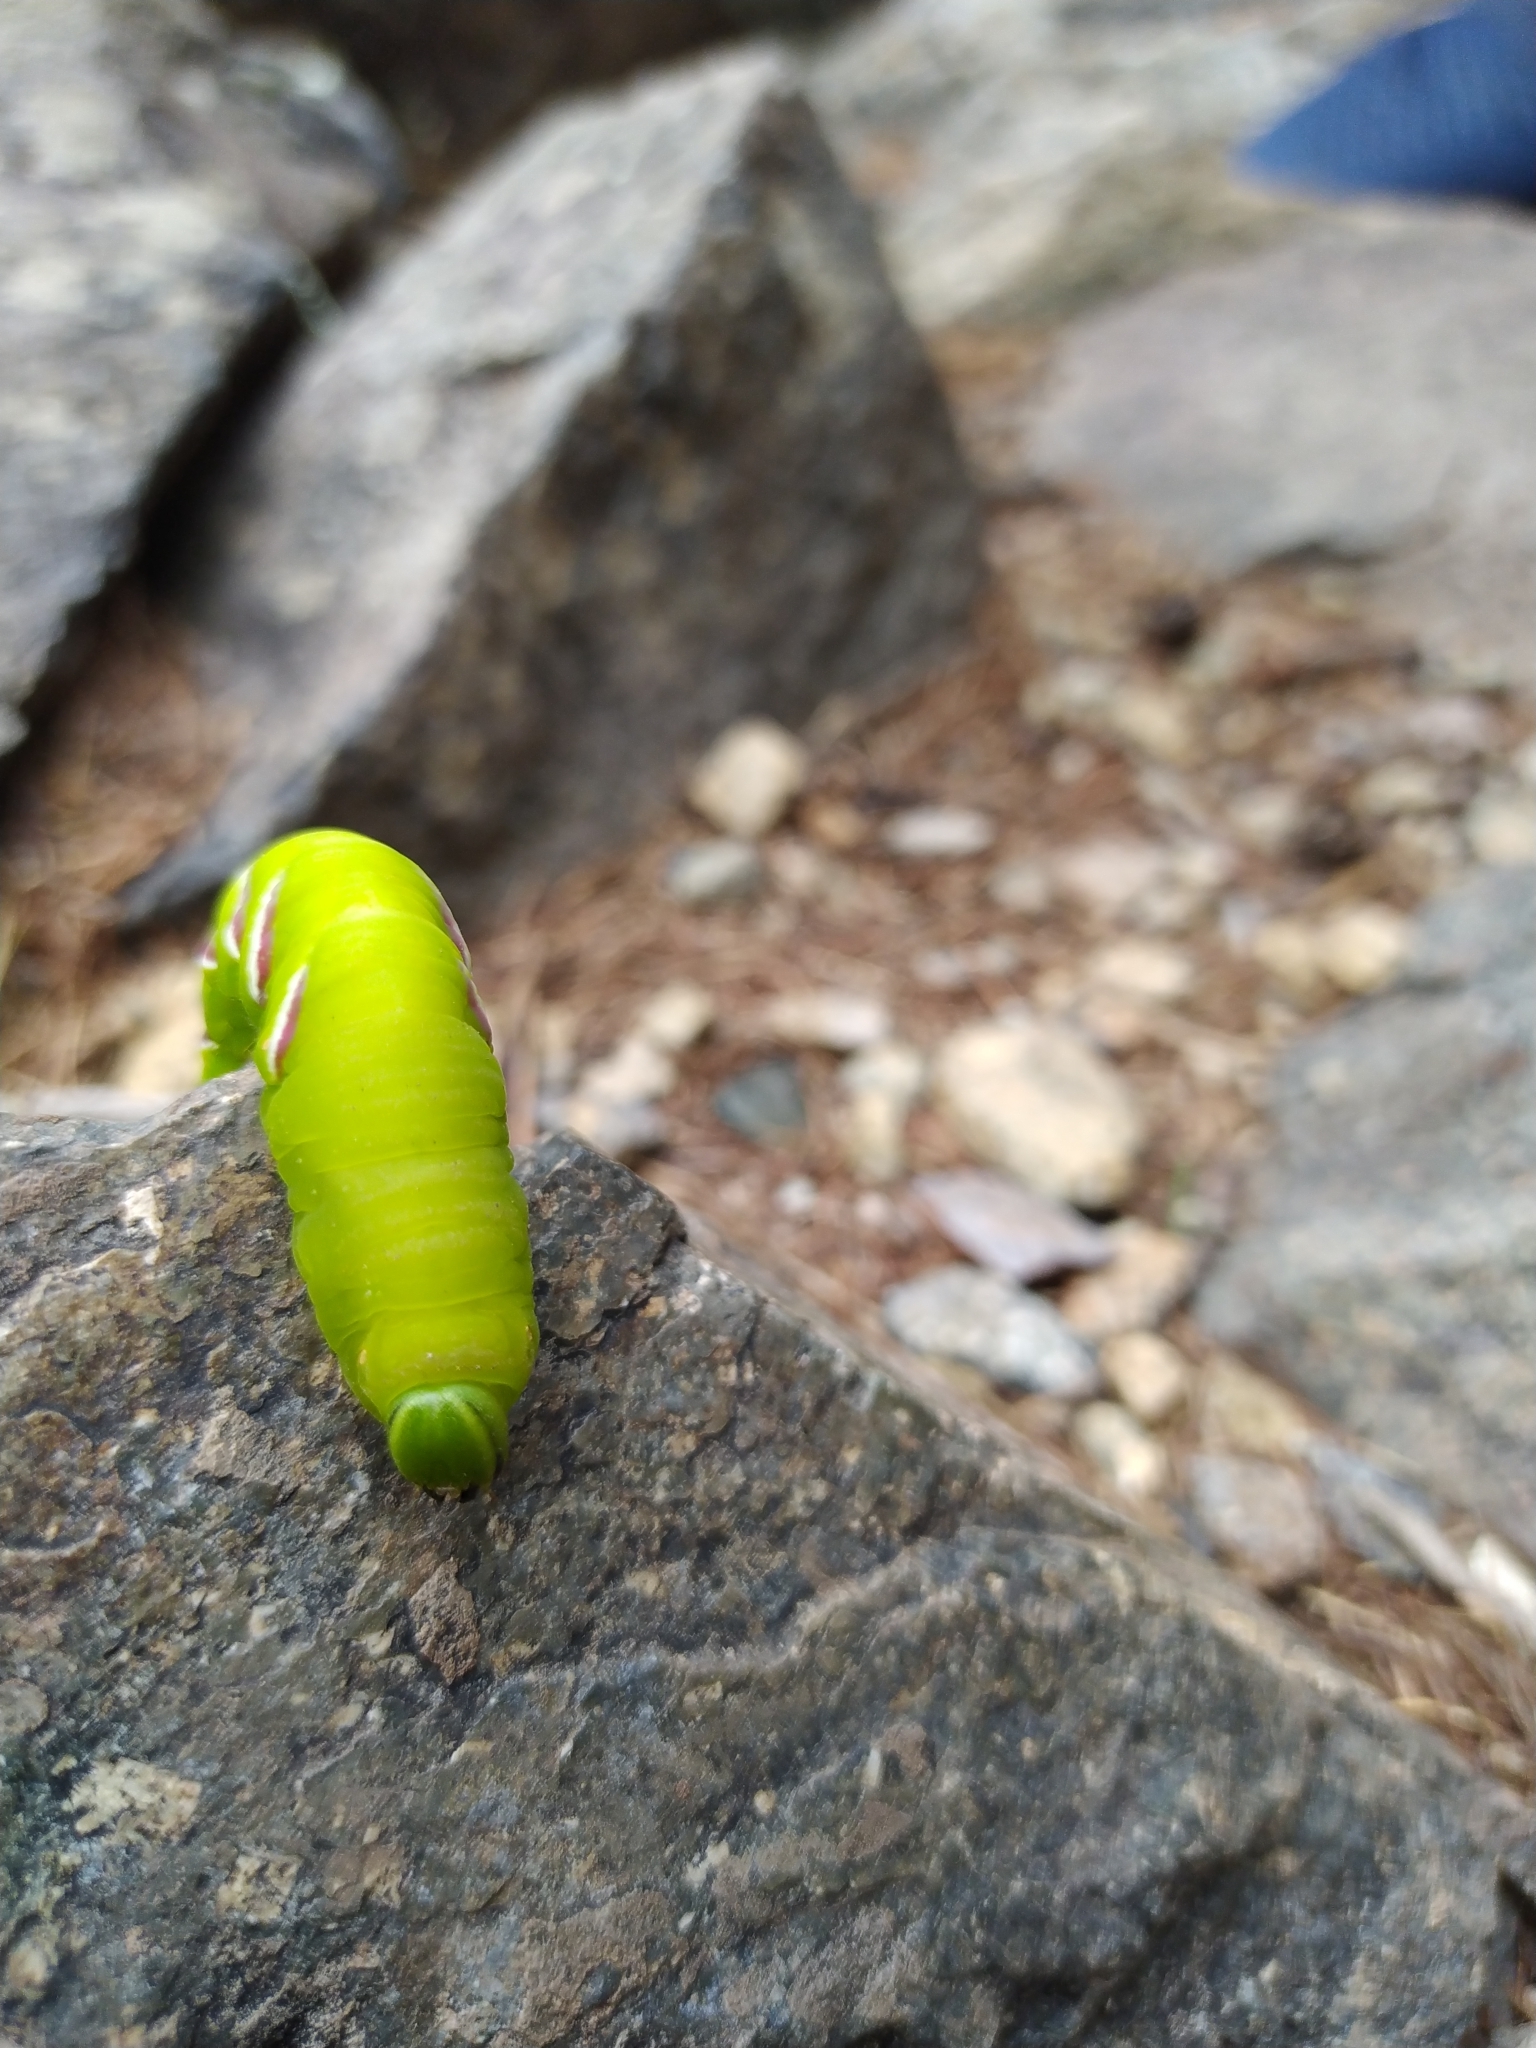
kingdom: Animalia
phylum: Arthropoda
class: Insecta
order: Lepidoptera
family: Sphingidae
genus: Sphinx
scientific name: Sphinx ligustri
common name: Privet hawk-moth
